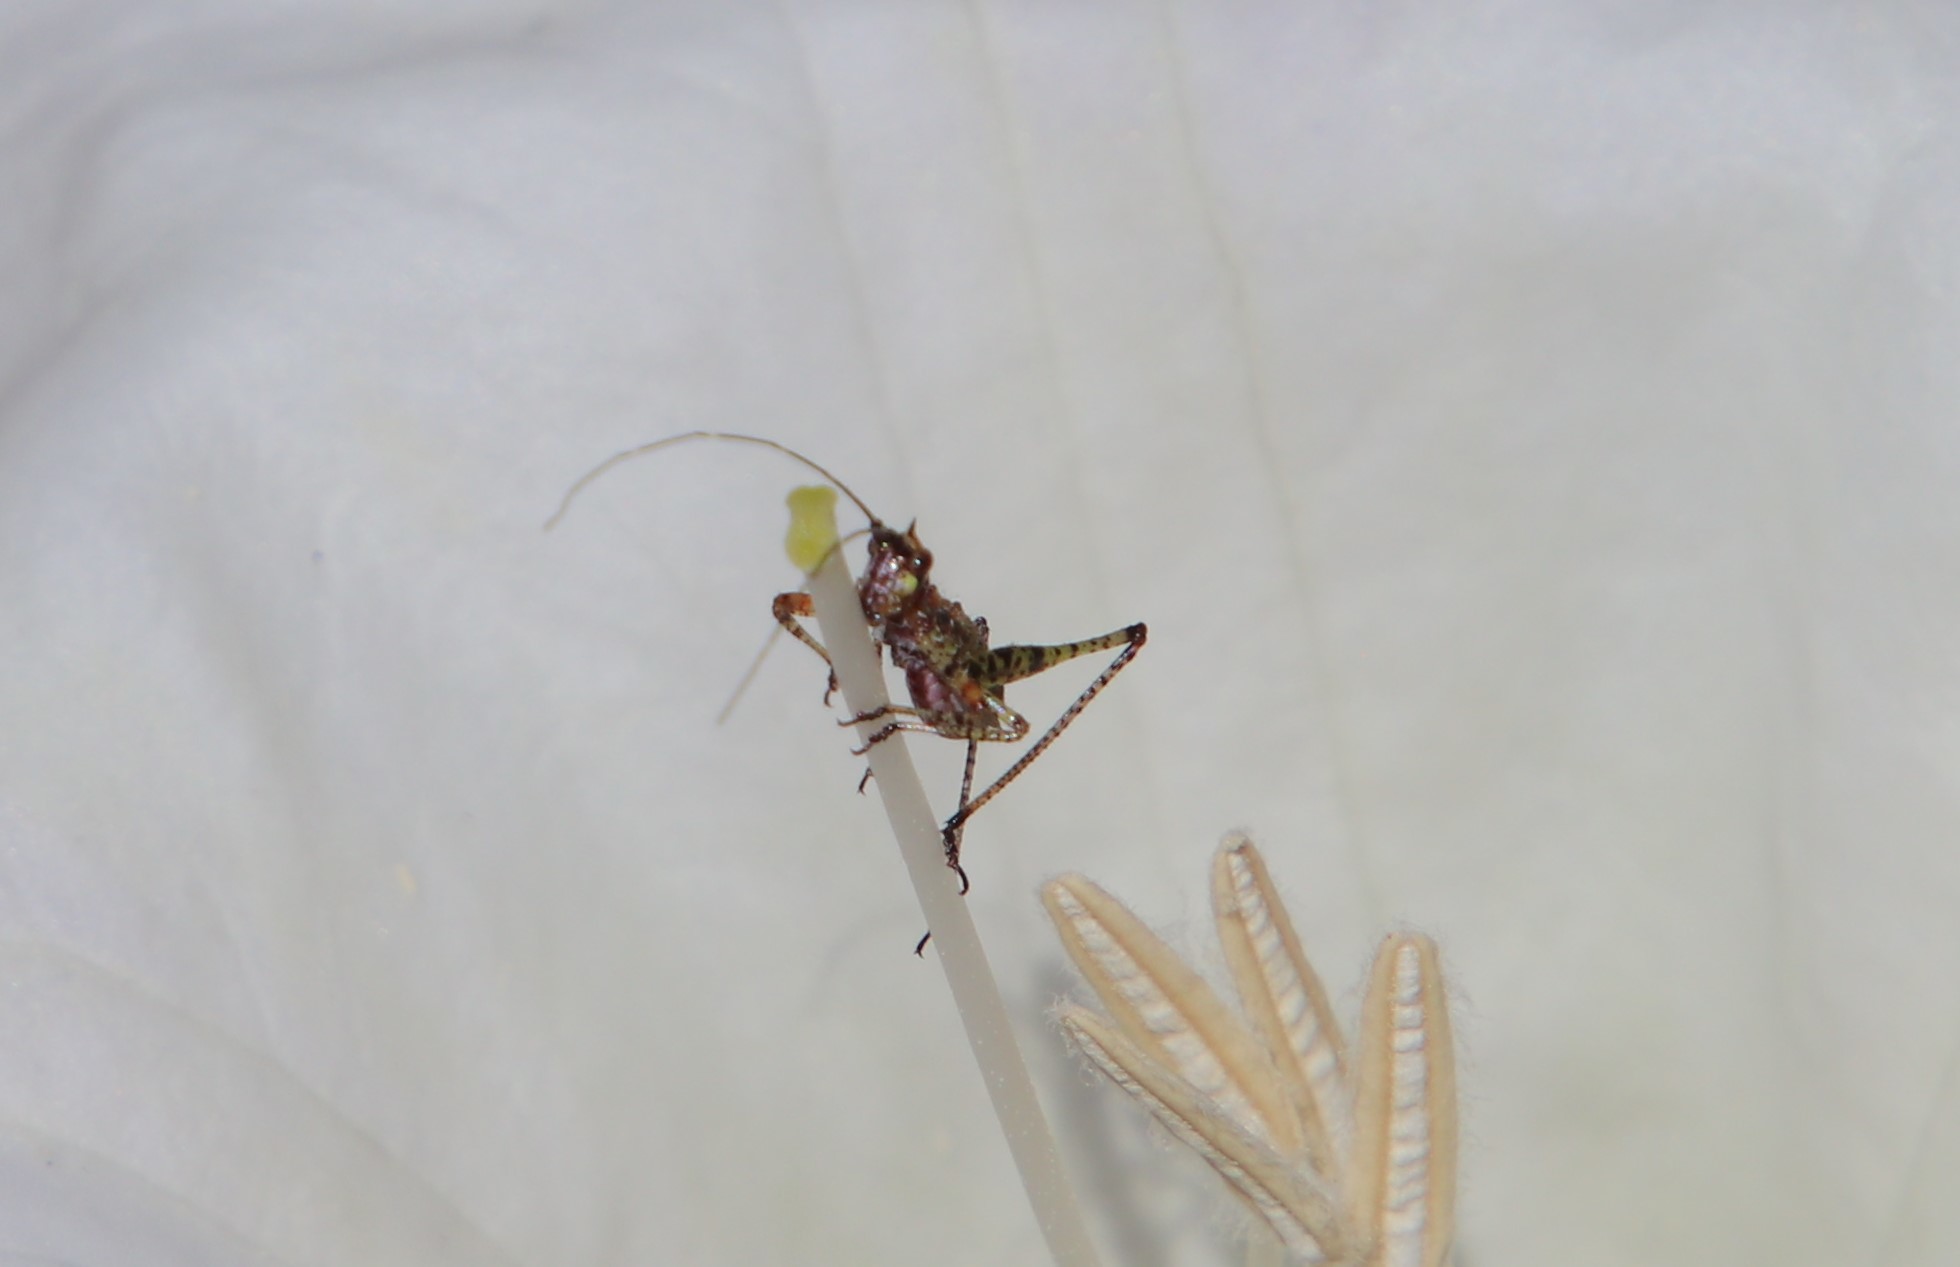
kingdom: Animalia
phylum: Arthropoda
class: Insecta
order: Orthoptera
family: Tettigoniidae
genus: Scudderia
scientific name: Scudderia
